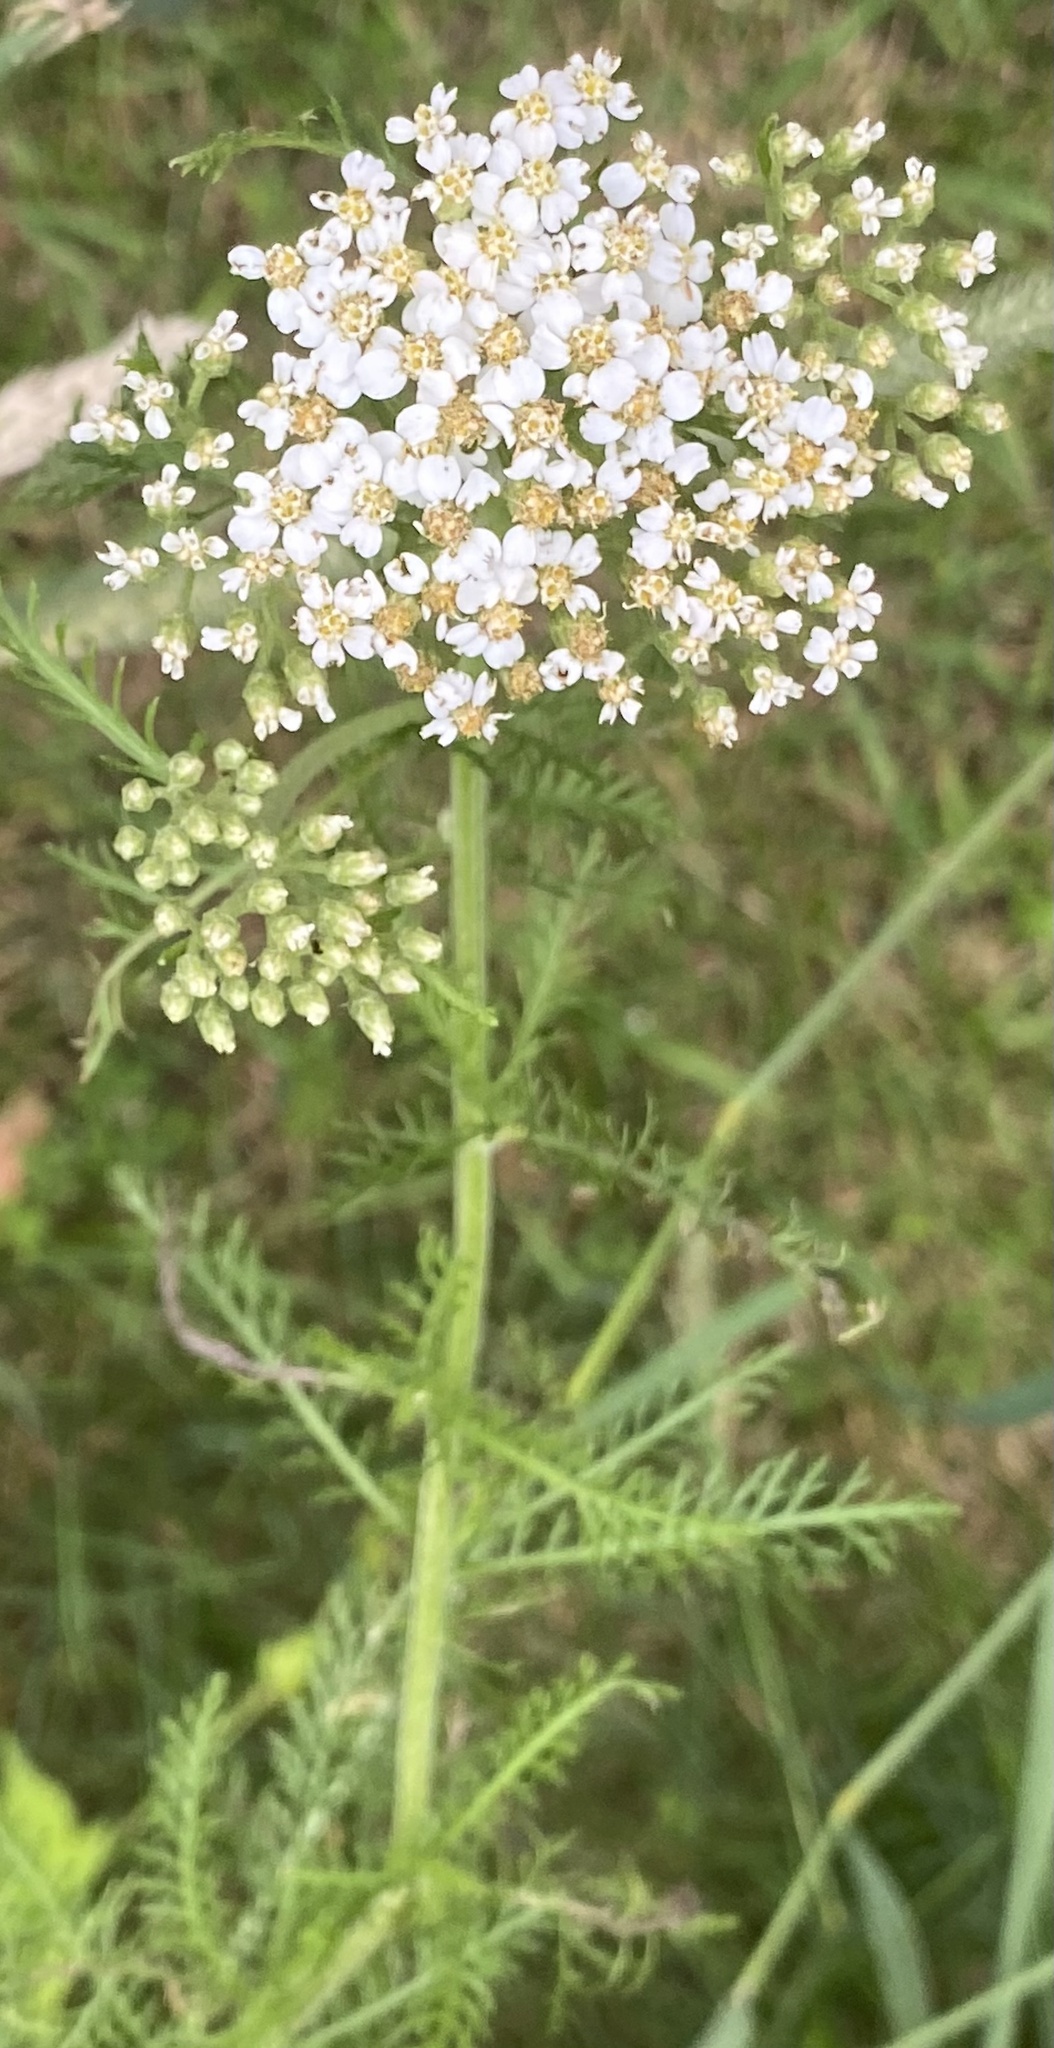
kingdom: Plantae
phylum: Tracheophyta
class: Magnoliopsida
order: Asterales
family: Asteraceae
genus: Achillea
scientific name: Achillea millefolium
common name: Yarrow
